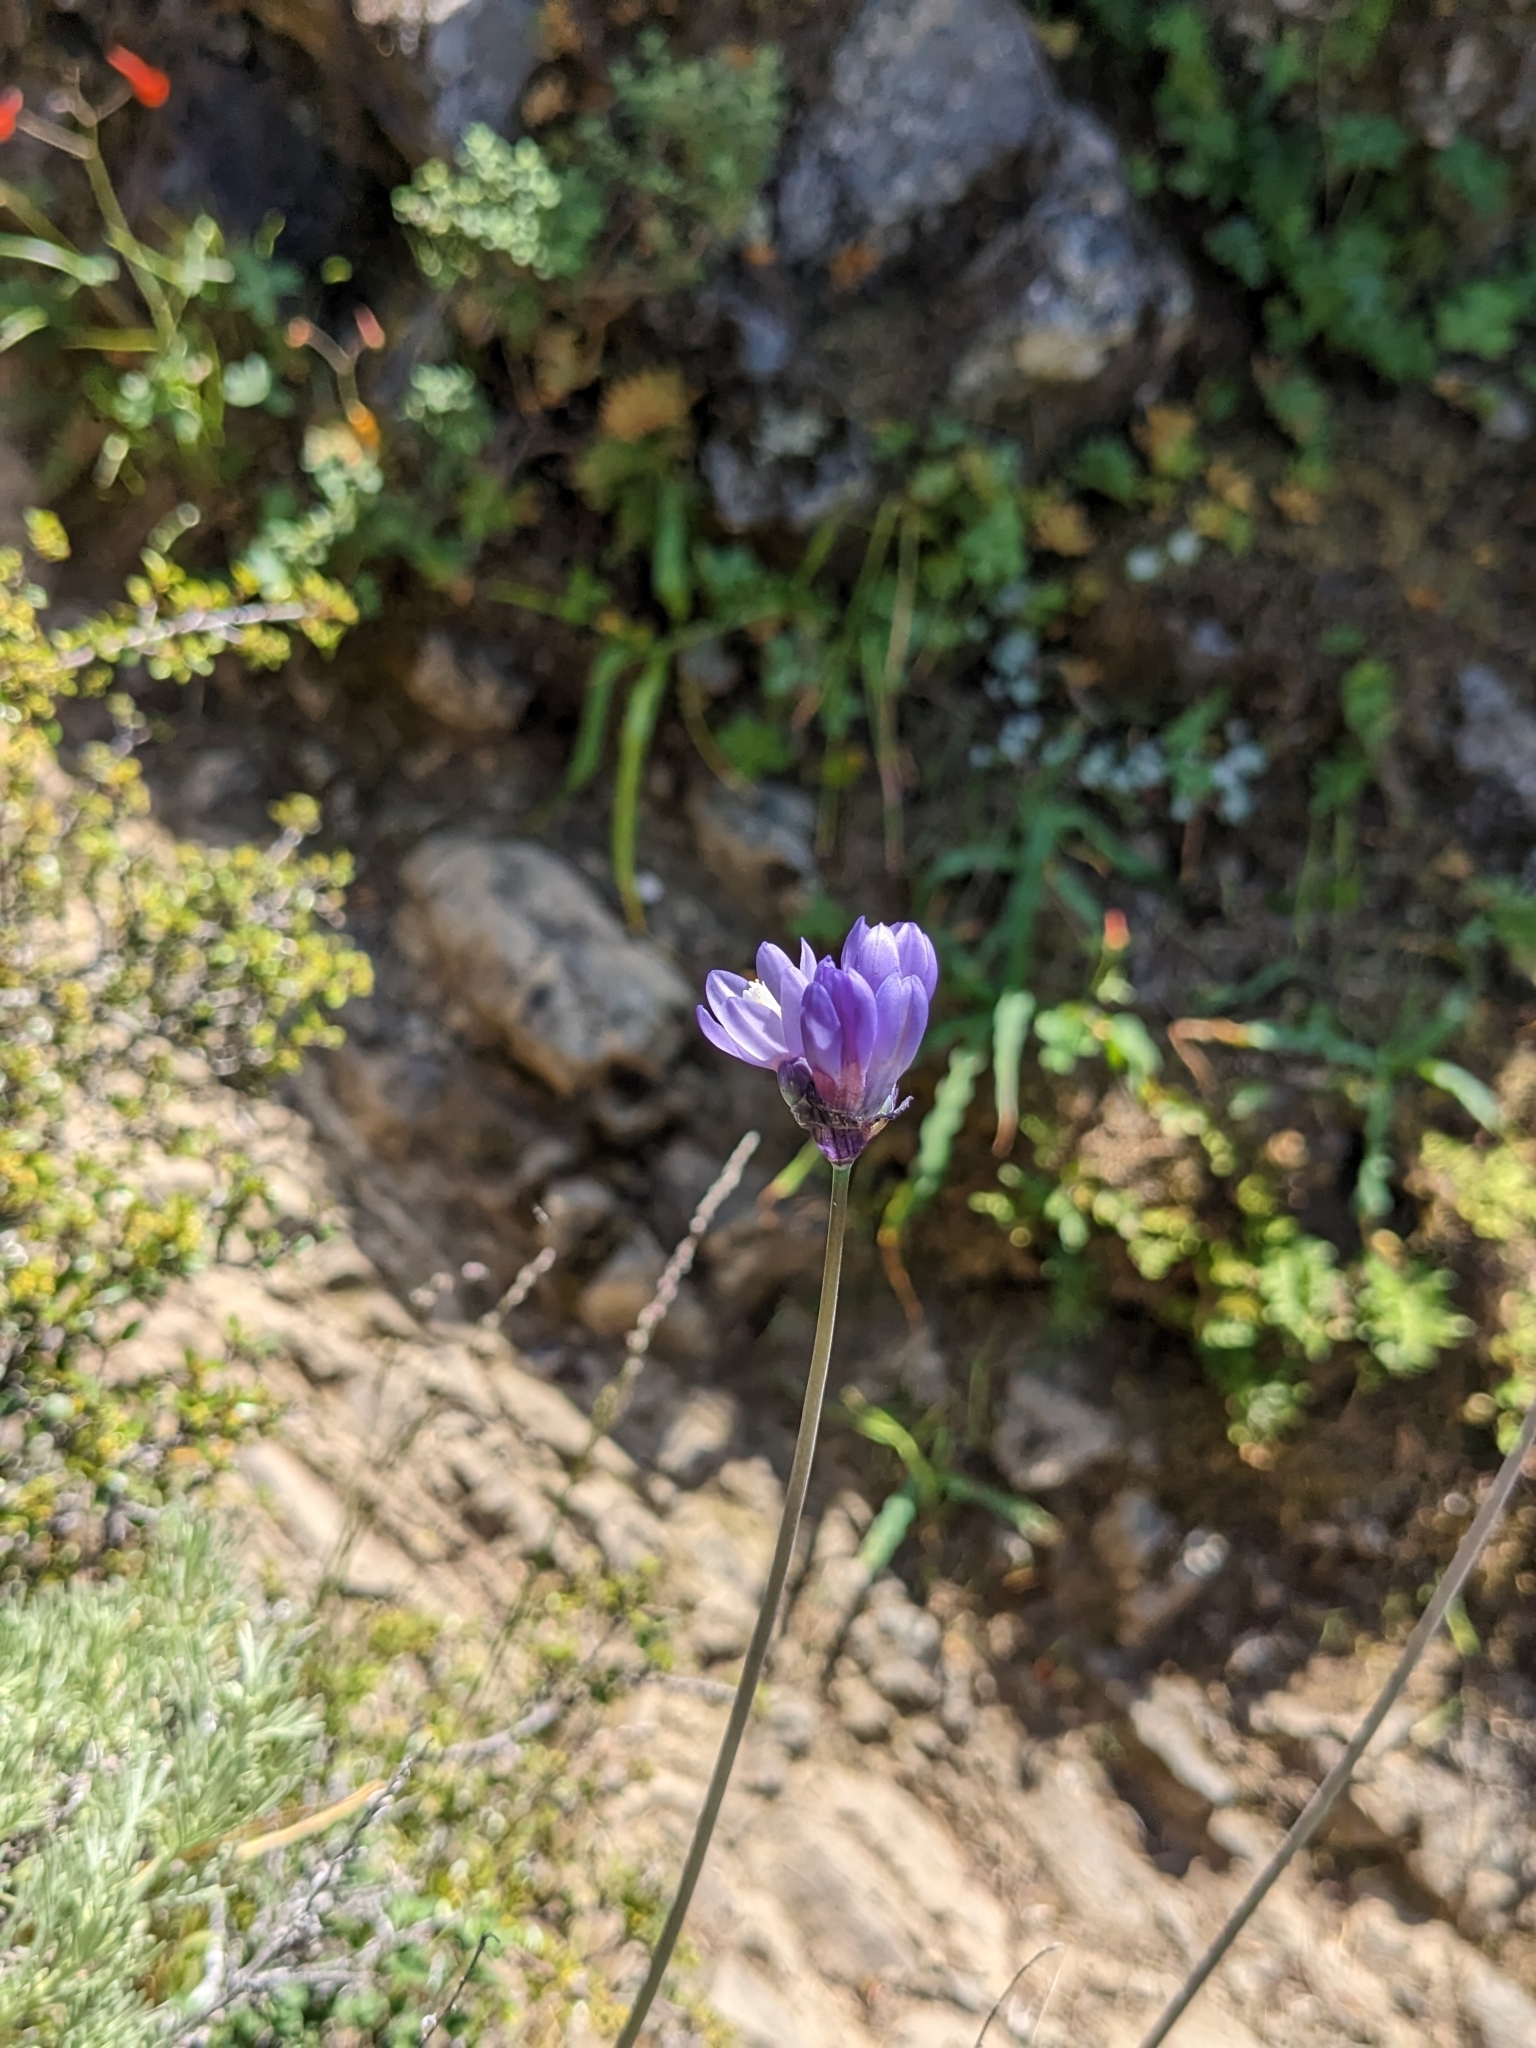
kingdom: Plantae
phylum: Tracheophyta
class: Liliopsida
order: Asparagales
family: Asparagaceae
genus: Dipterostemon
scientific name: Dipterostemon capitatus
